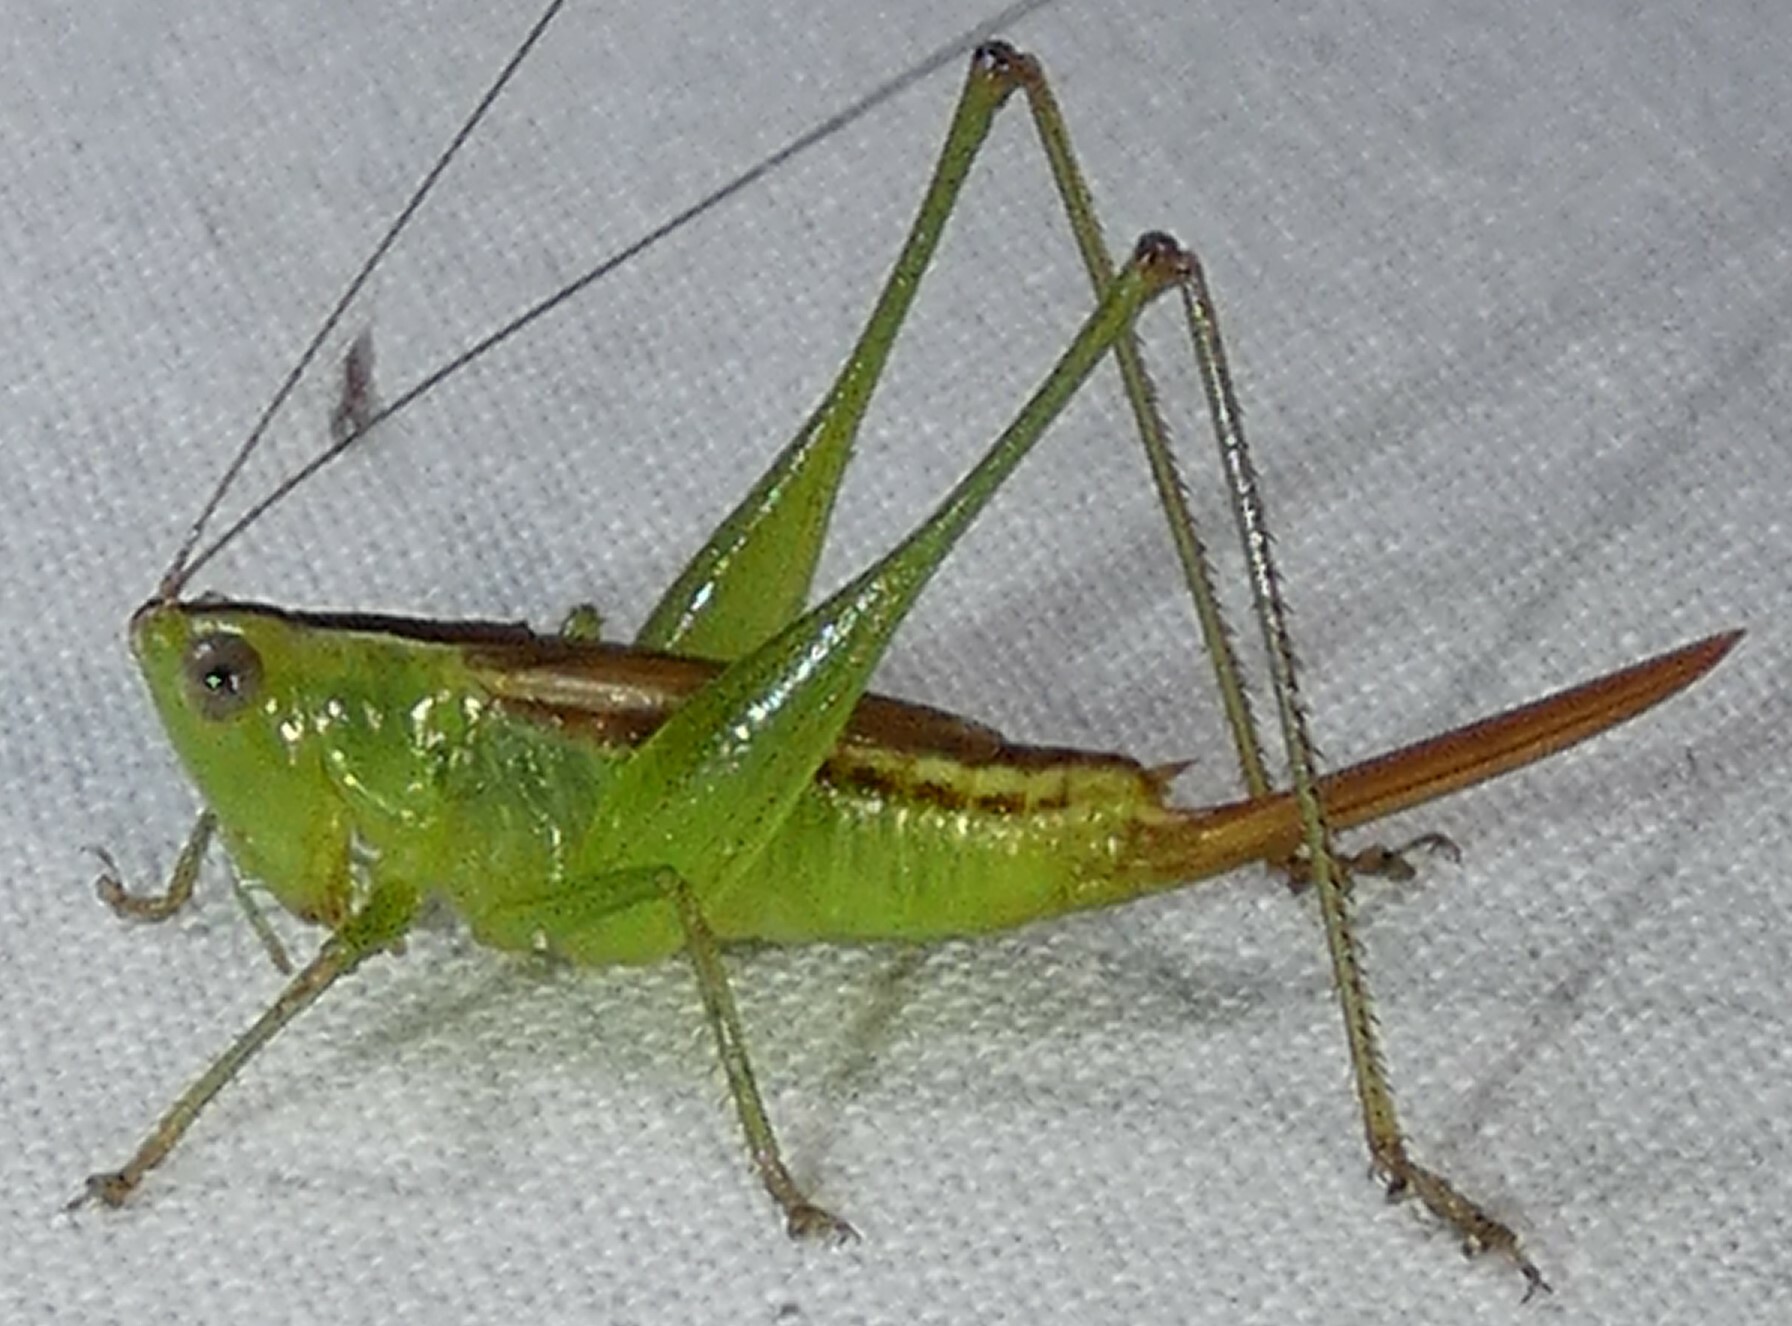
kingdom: Animalia
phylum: Arthropoda
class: Insecta
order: Orthoptera
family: Tettigoniidae
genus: Conocephalus
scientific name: Conocephalus brevipennis
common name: Short-winged meadow katydid
